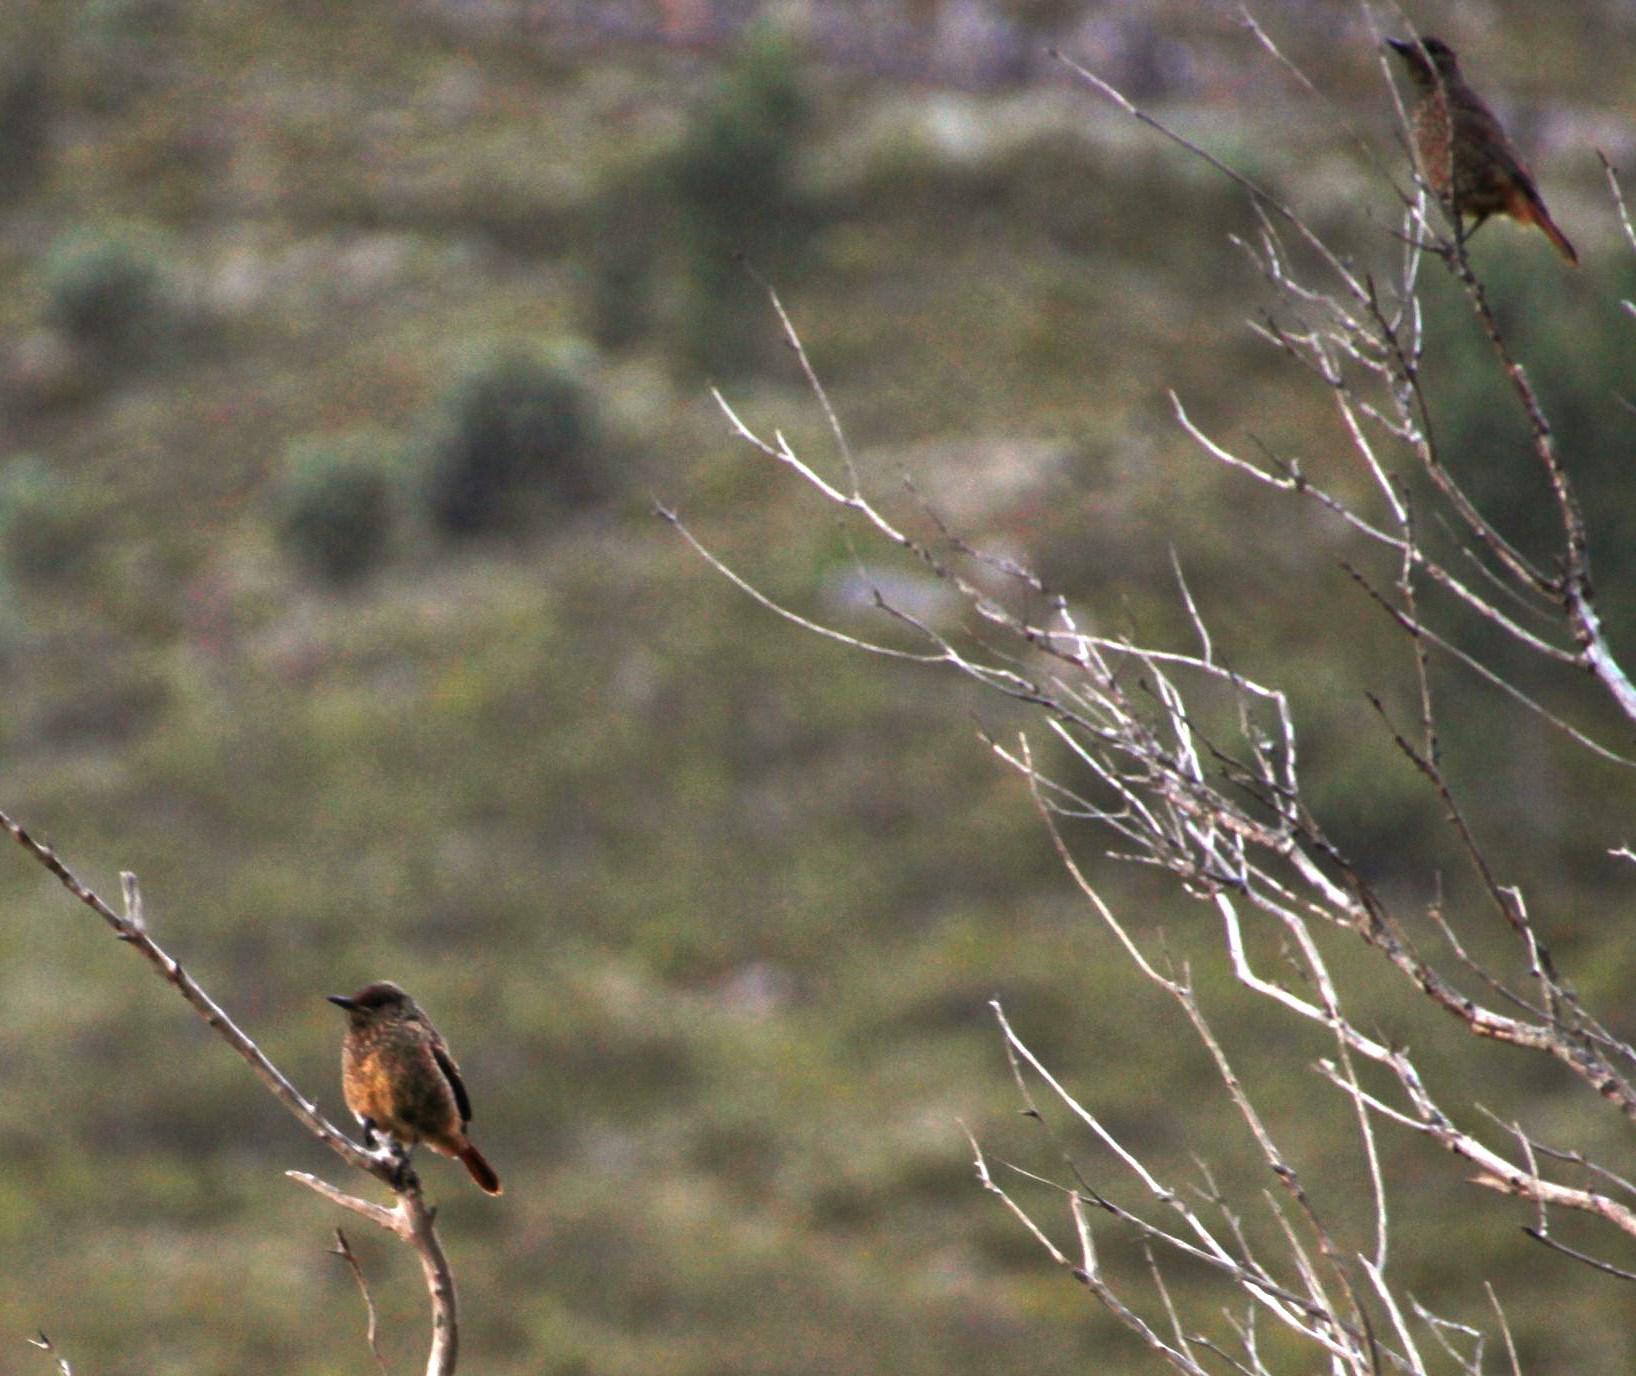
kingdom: Animalia
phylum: Chordata
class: Aves
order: Passeriformes
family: Muscicapidae
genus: Monticola
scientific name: Monticola rupestris
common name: Cape rock thrush
